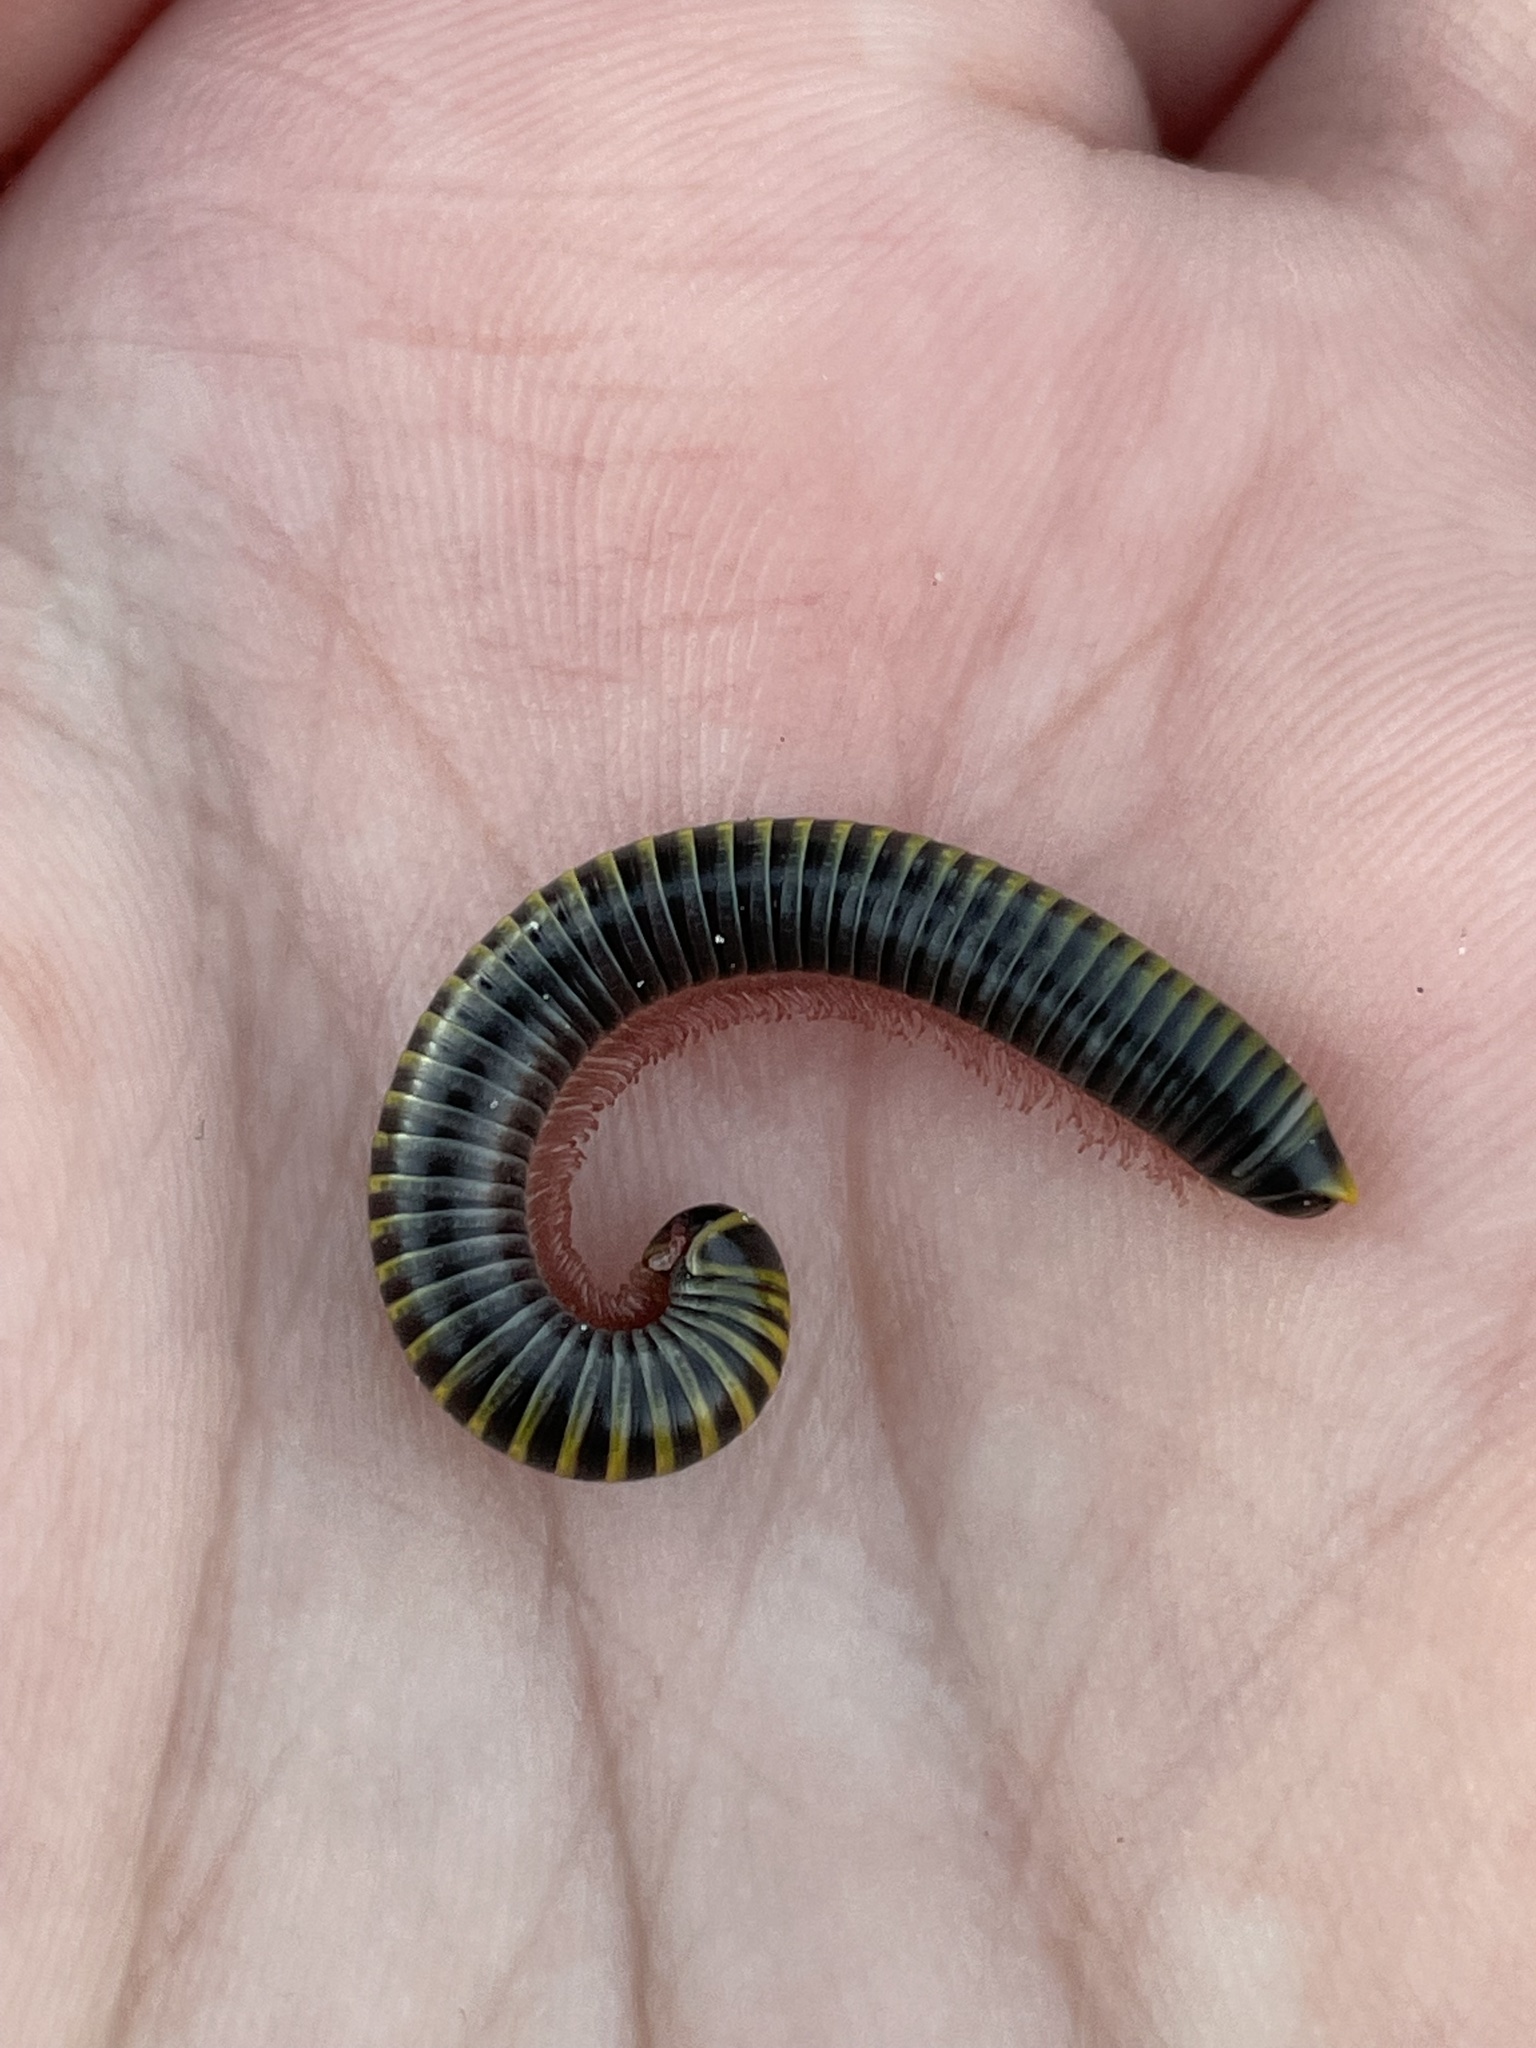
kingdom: Animalia
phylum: Arthropoda
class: Diplopoda
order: Spirobolida
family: Rhinocricidae
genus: Anadenobolus
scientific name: Anadenobolus monilicornis
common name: Caribbean millipede
